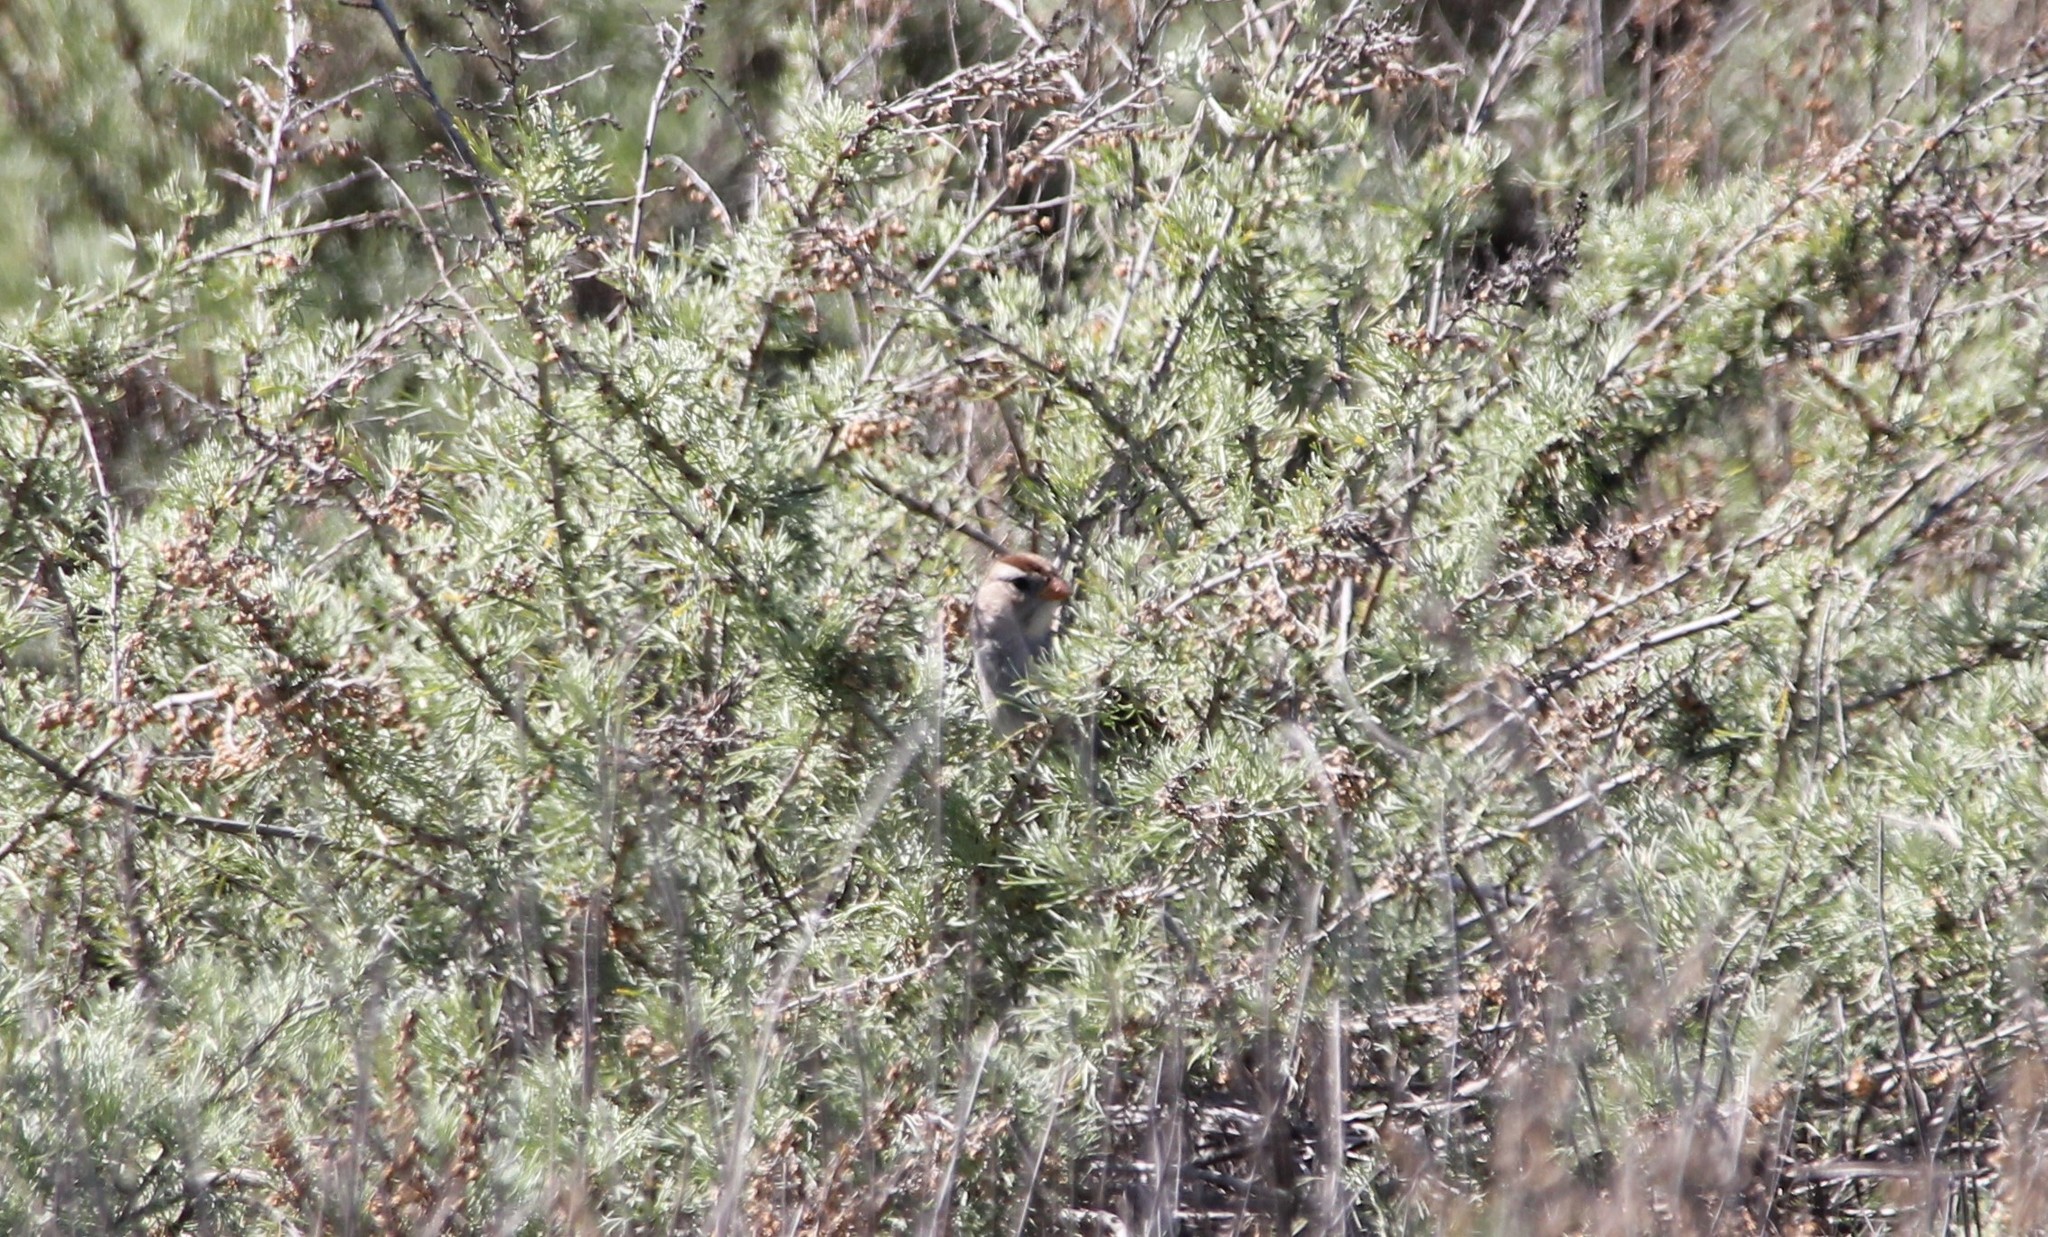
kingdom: Animalia
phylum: Chordata
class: Aves
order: Passeriformes
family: Passerellidae
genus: Zonotrichia
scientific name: Zonotrichia leucophrys
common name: White-crowned sparrow
